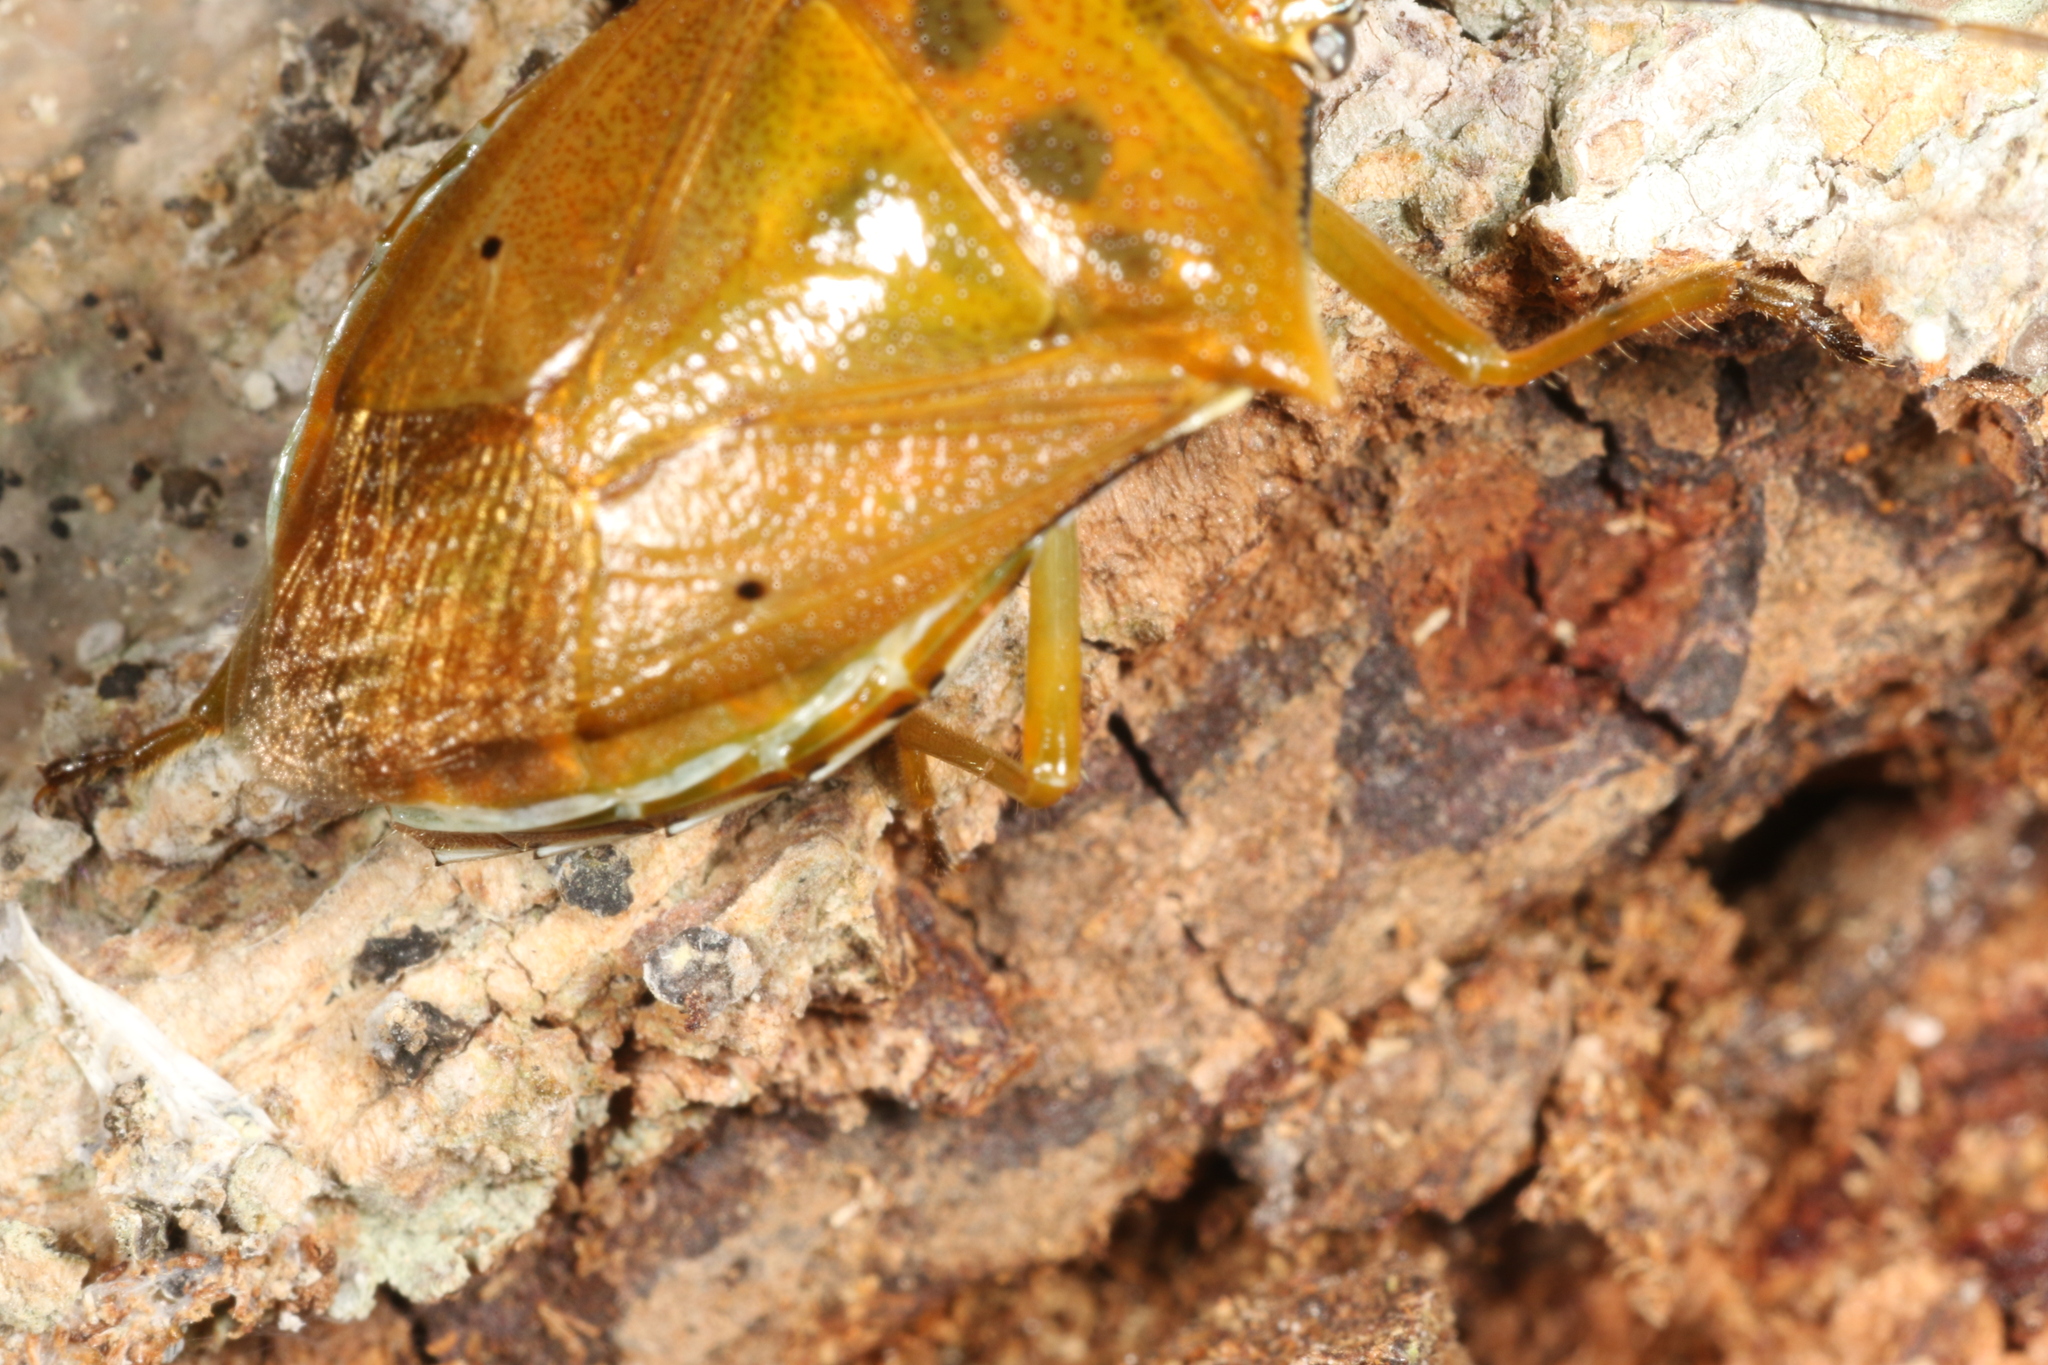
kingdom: Animalia
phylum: Arthropoda
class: Insecta
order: Hemiptera
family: Pentatomidae
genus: Brontocoris
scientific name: Brontocoris tabidus
